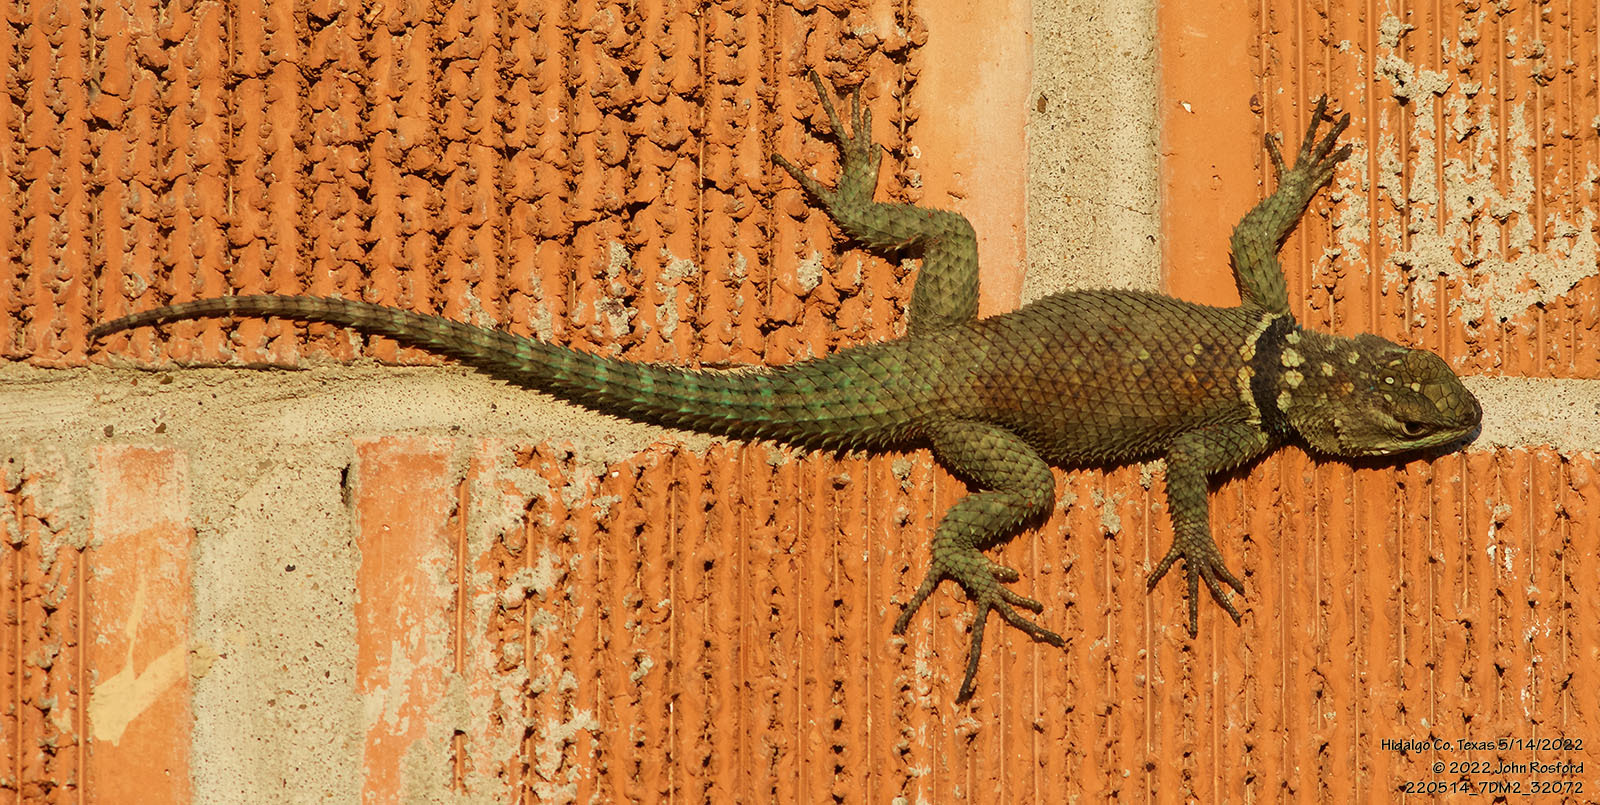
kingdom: Animalia
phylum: Chordata
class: Squamata
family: Phrynosomatidae
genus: Sceloporus
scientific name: Sceloporus cyanogenys
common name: Blue spiny lizard
